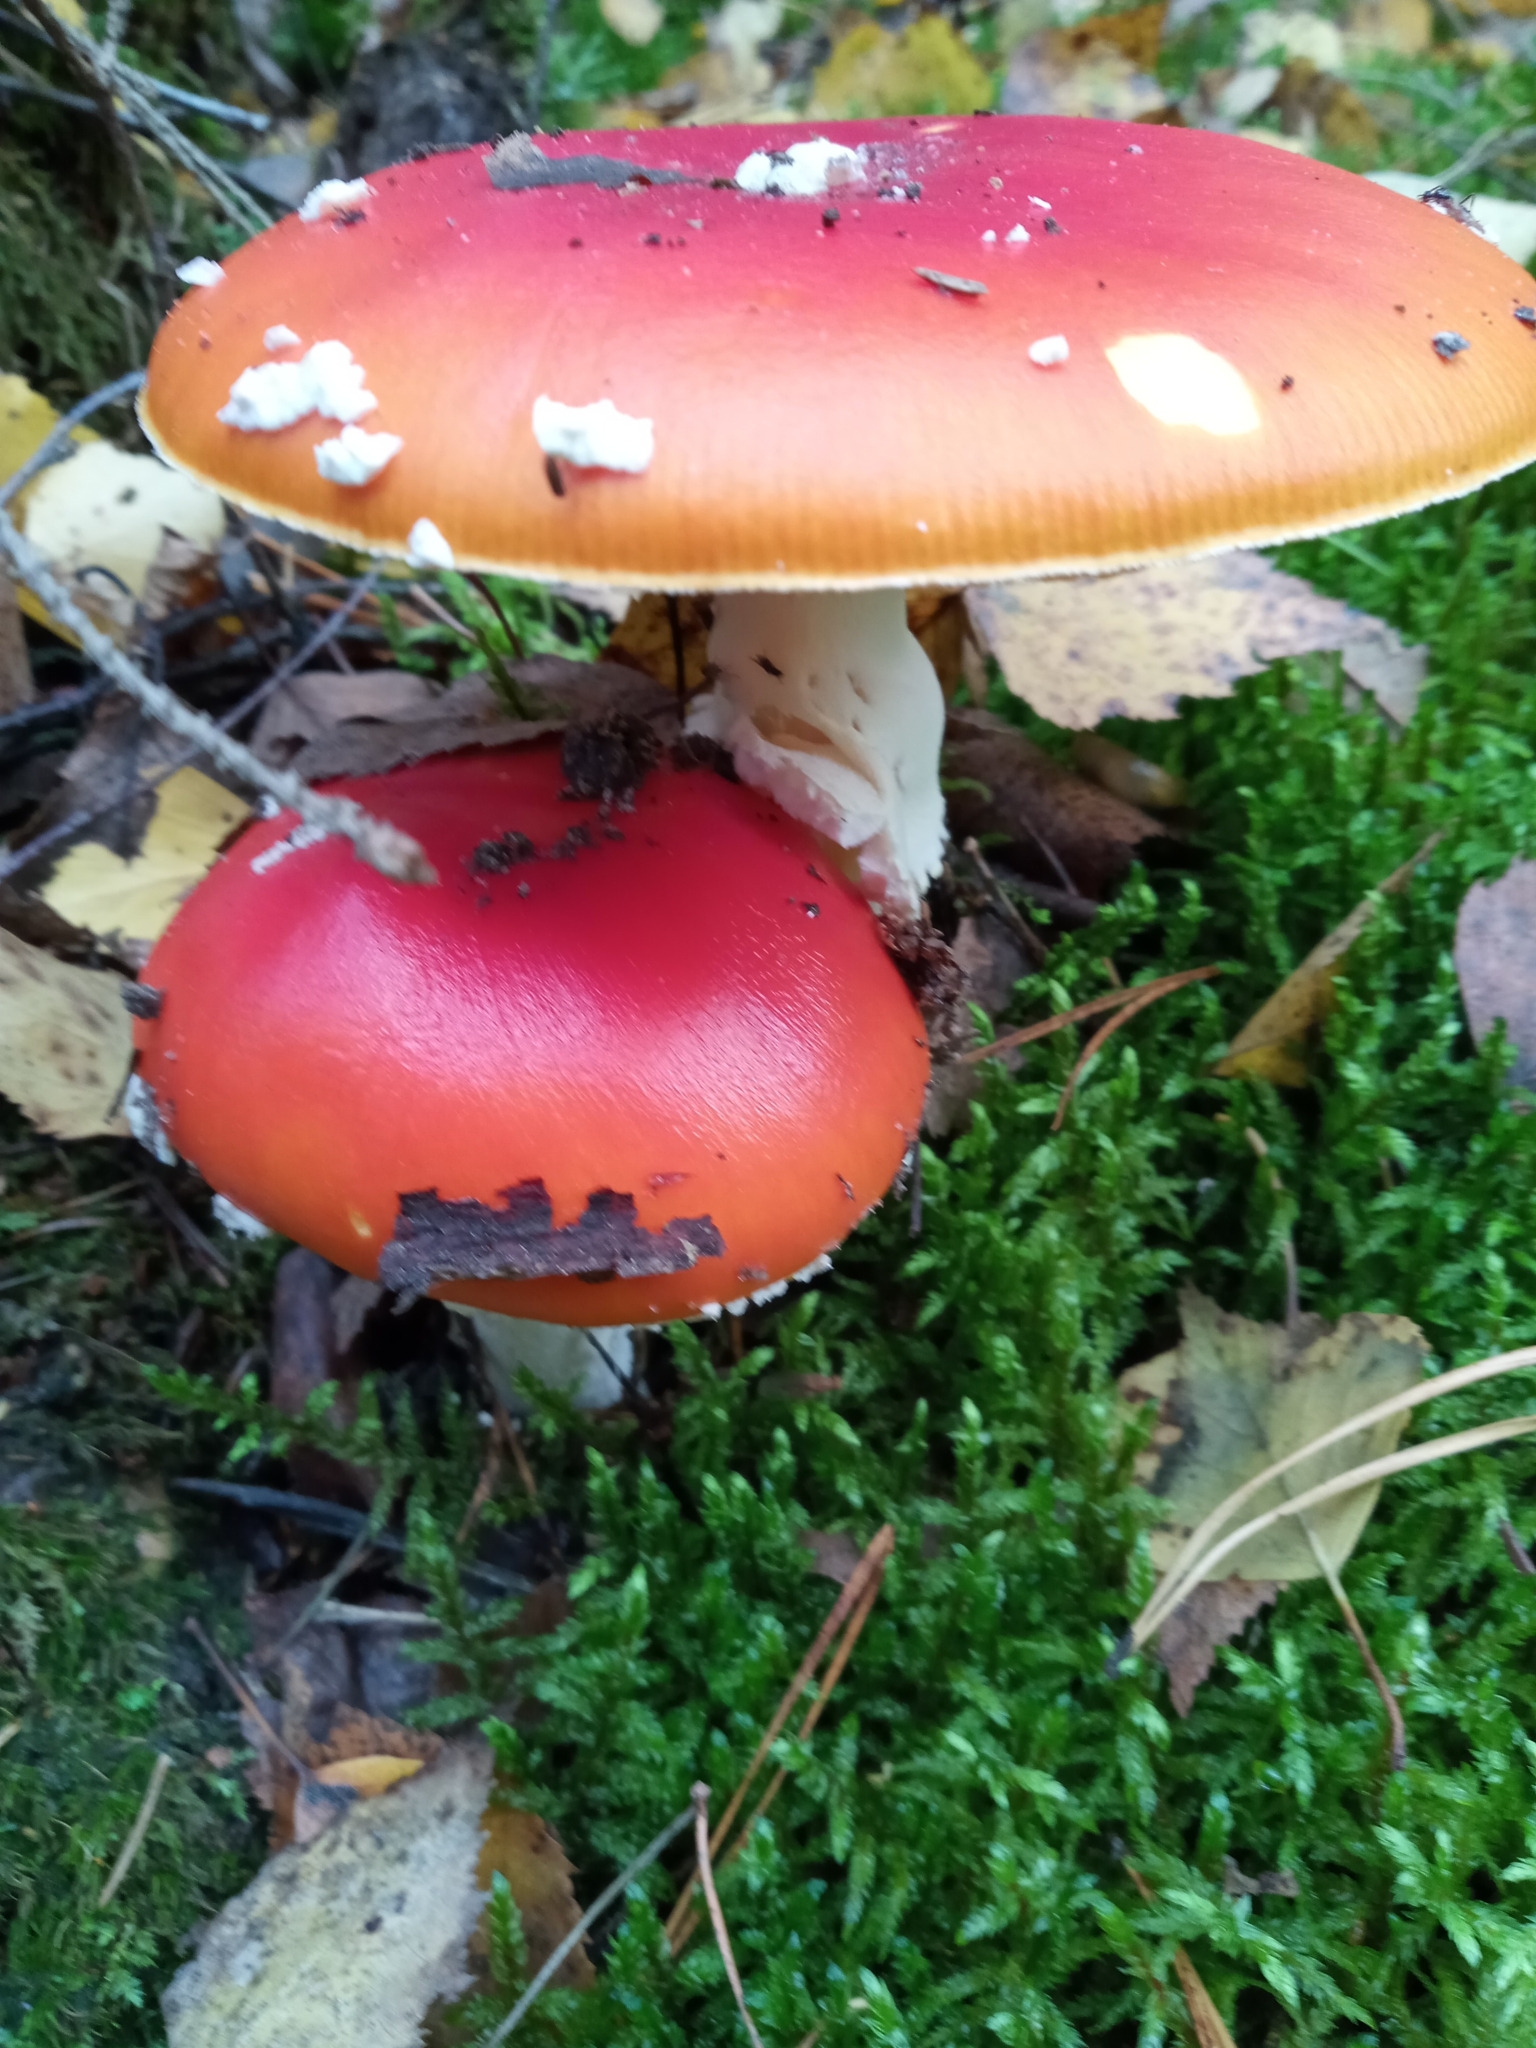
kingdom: Fungi
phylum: Basidiomycota
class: Agaricomycetes
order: Agaricales
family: Amanitaceae
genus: Amanita
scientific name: Amanita muscaria
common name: Fly agaric
